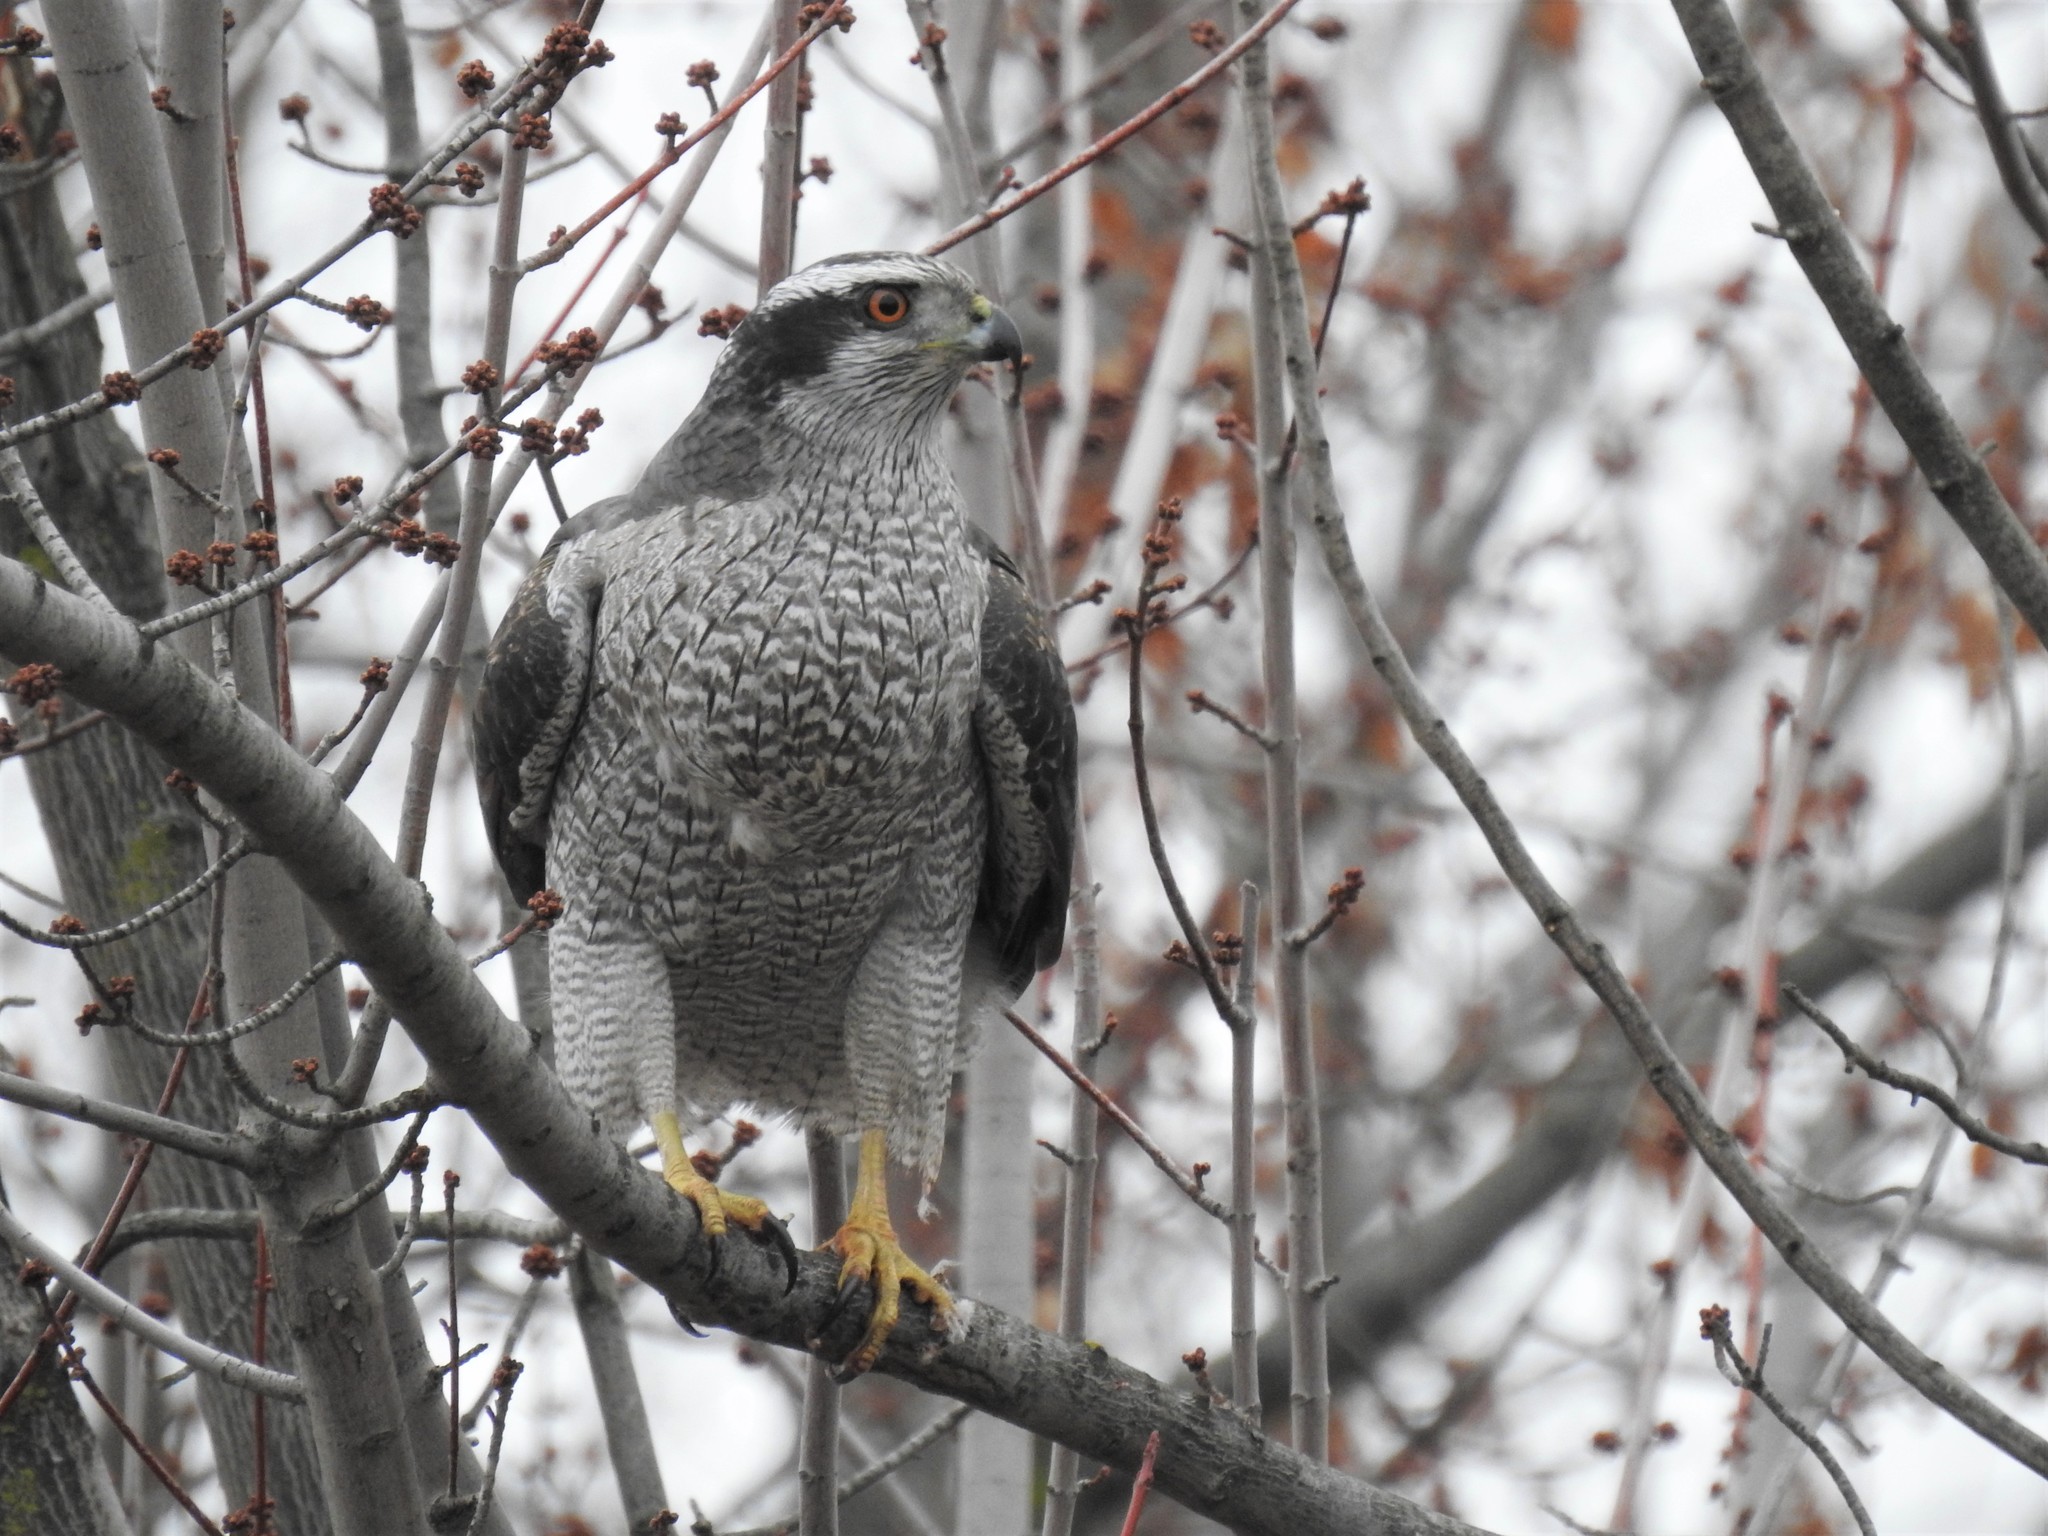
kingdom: Animalia
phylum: Chordata
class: Aves
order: Accipitriformes
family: Accipitridae
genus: Accipiter
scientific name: Accipiter gentilis
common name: Northern goshawk
